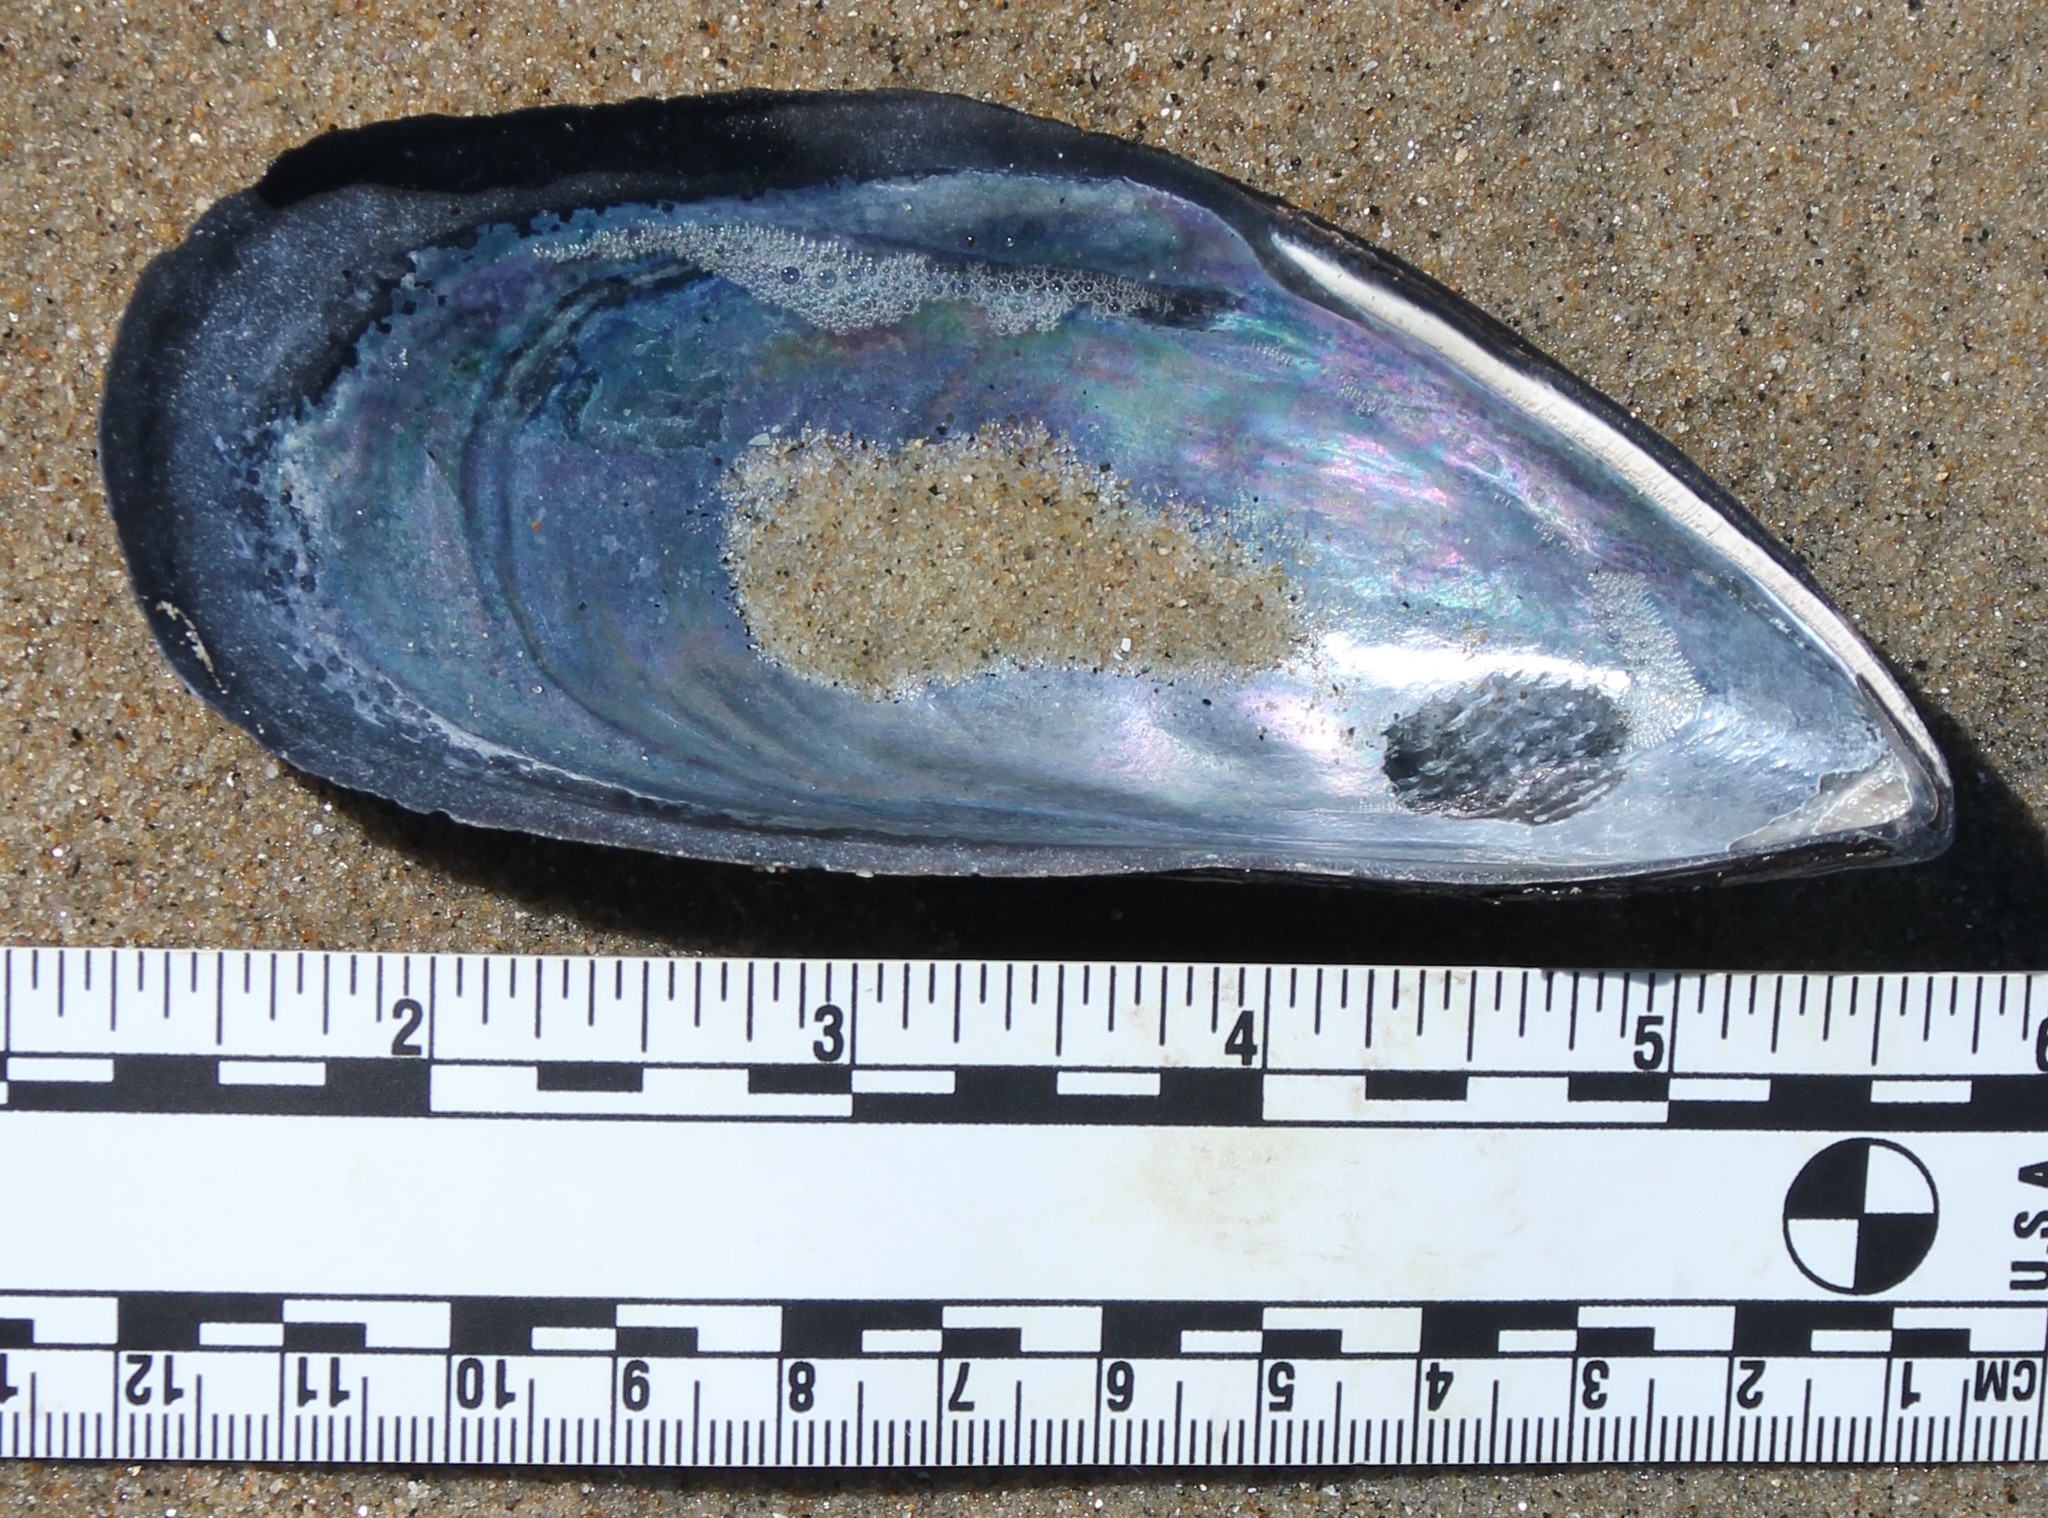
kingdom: Animalia
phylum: Mollusca
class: Bivalvia
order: Mytilida
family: Mytilidae
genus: Mytilus
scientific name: Mytilus californianus
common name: California mussel
